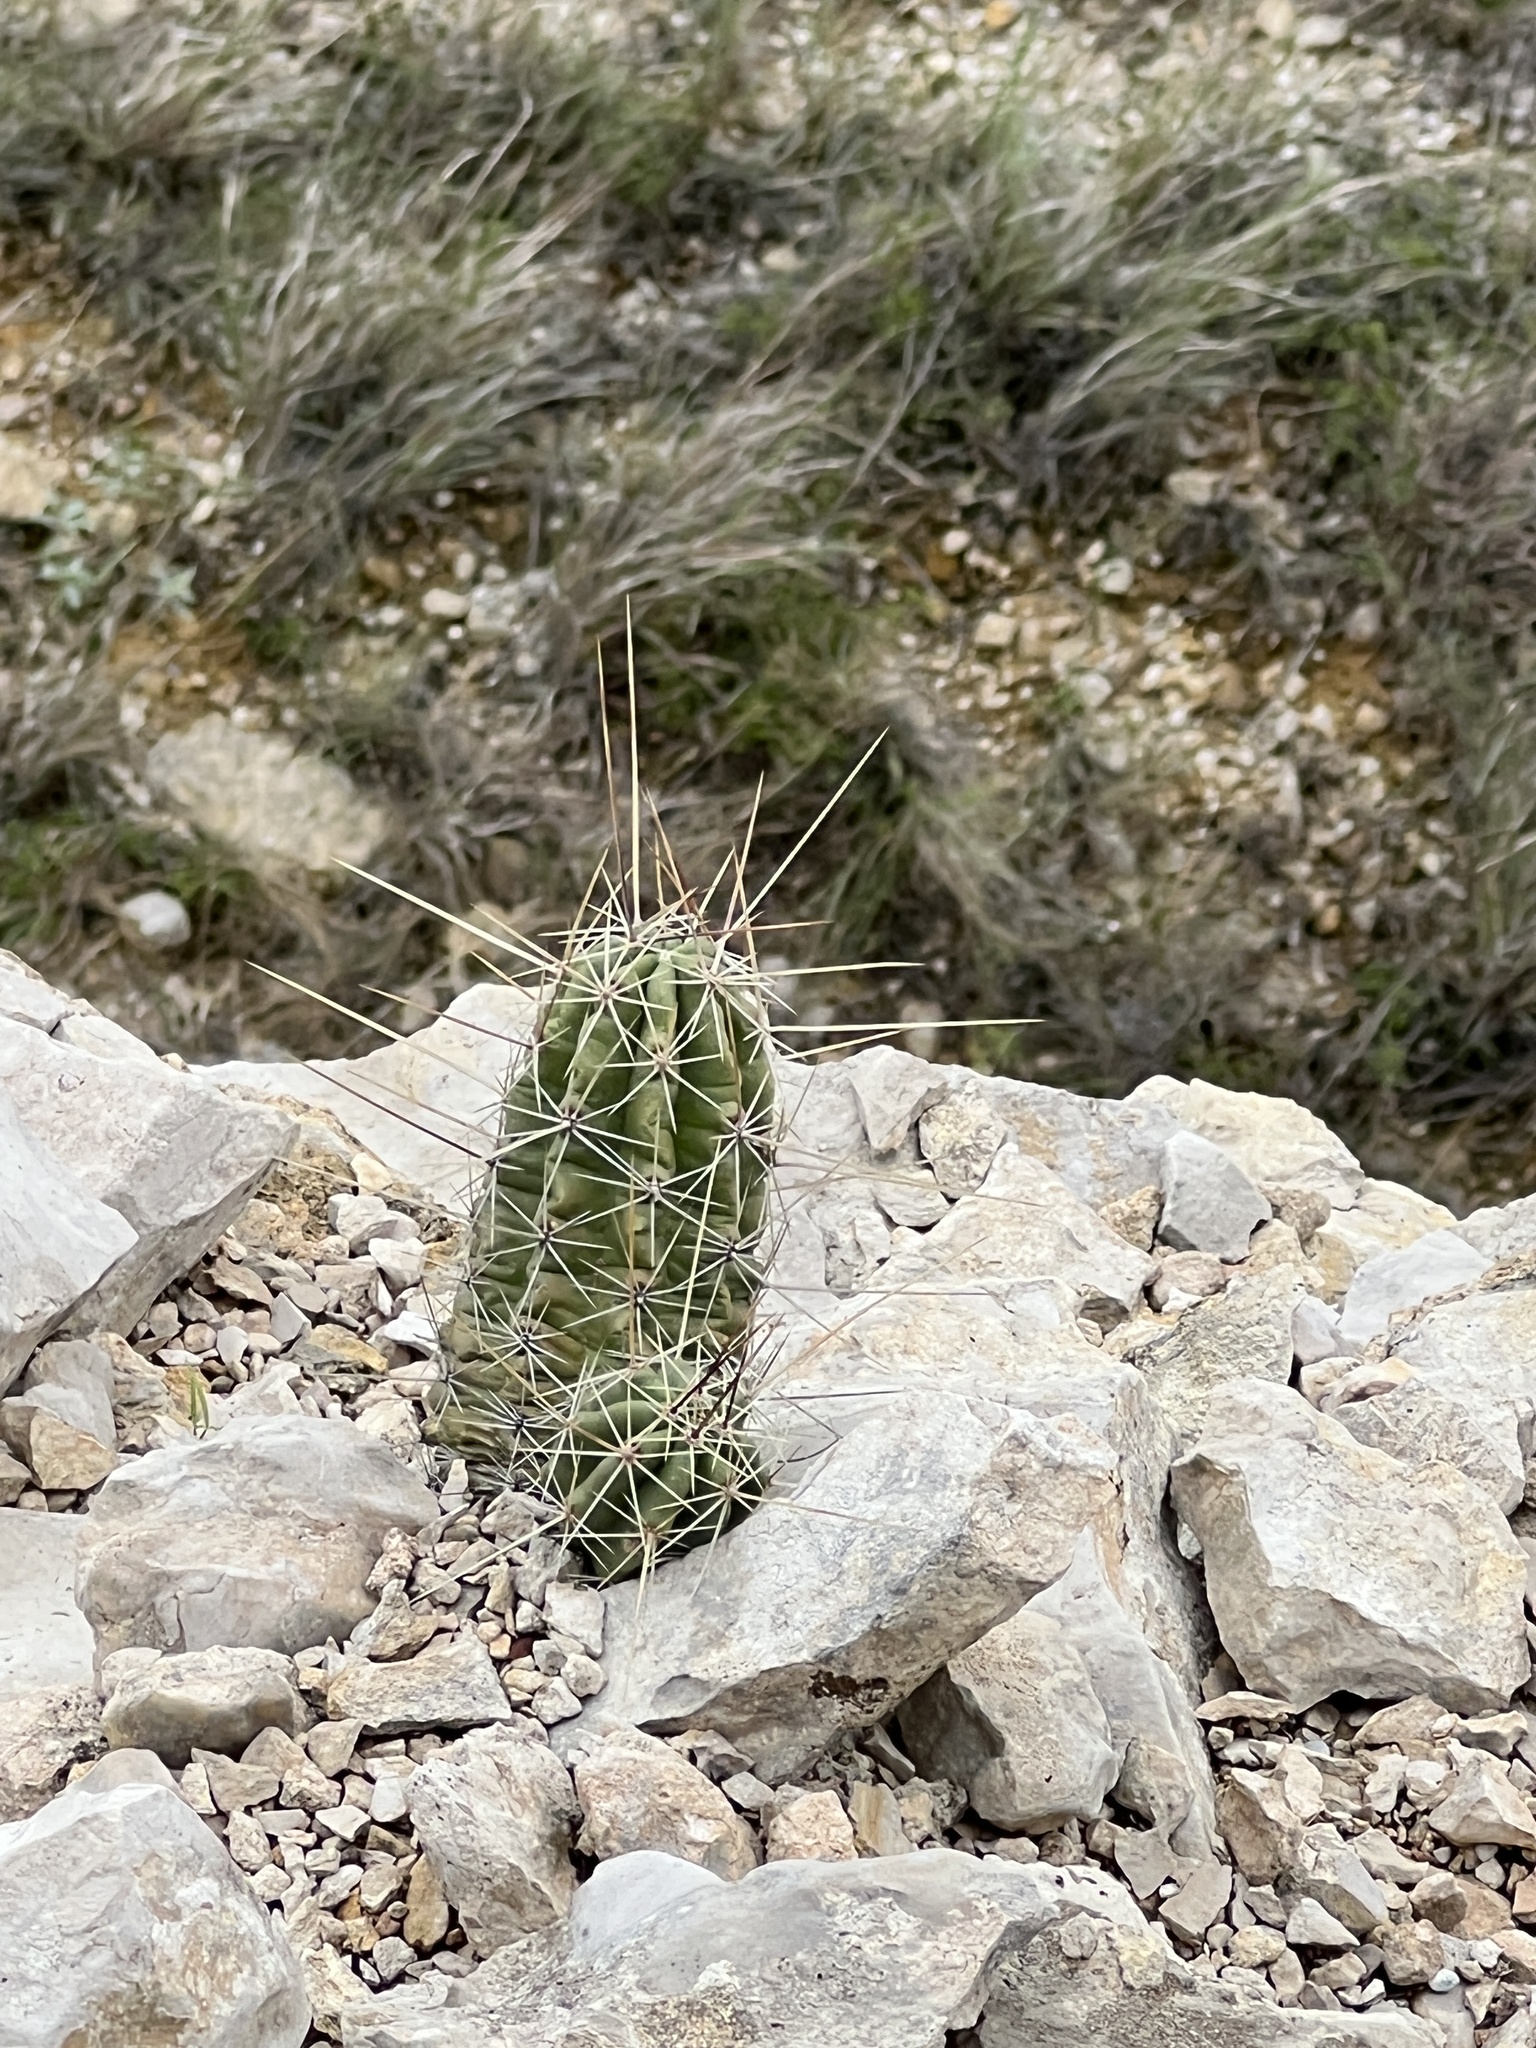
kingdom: Plantae
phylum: Tracheophyta
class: Magnoliopsida
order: Caryophyllales
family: Cactaceae
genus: Echinocereus
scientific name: Echinocereus enneacanthus
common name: Pitaya
